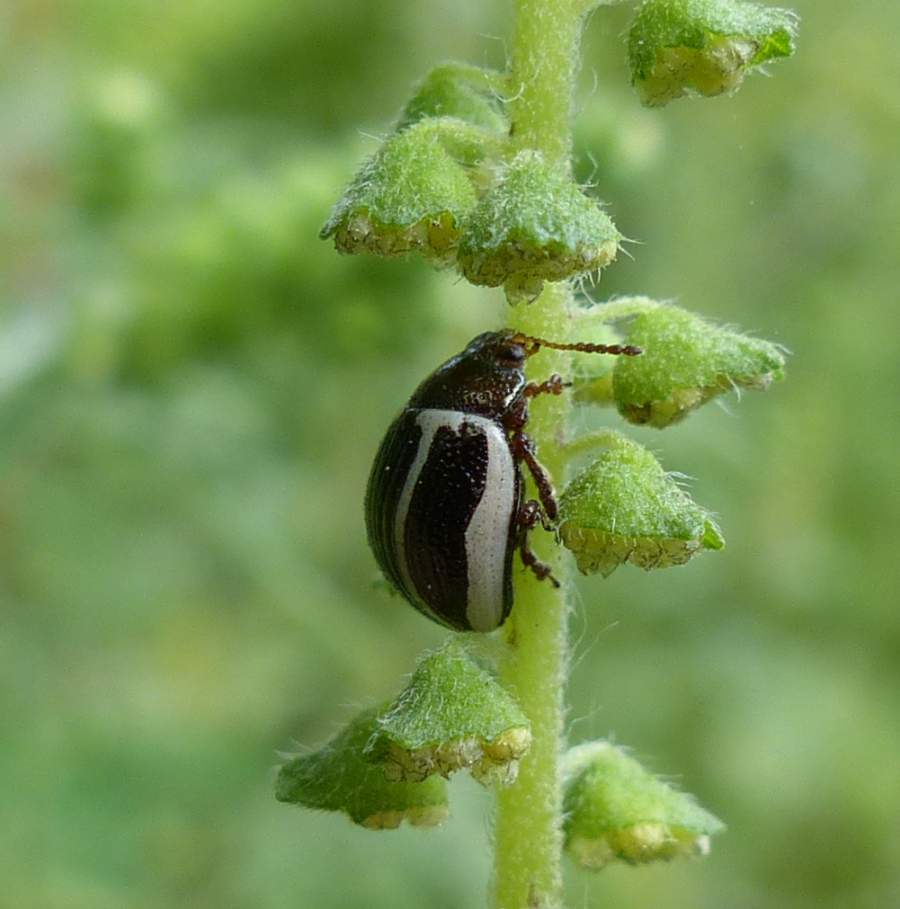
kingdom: Animalia
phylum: Arthropoda
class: Insecta
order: Coleoptera
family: Chrysomelidae
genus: Calligrapha
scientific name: Calligrapha
